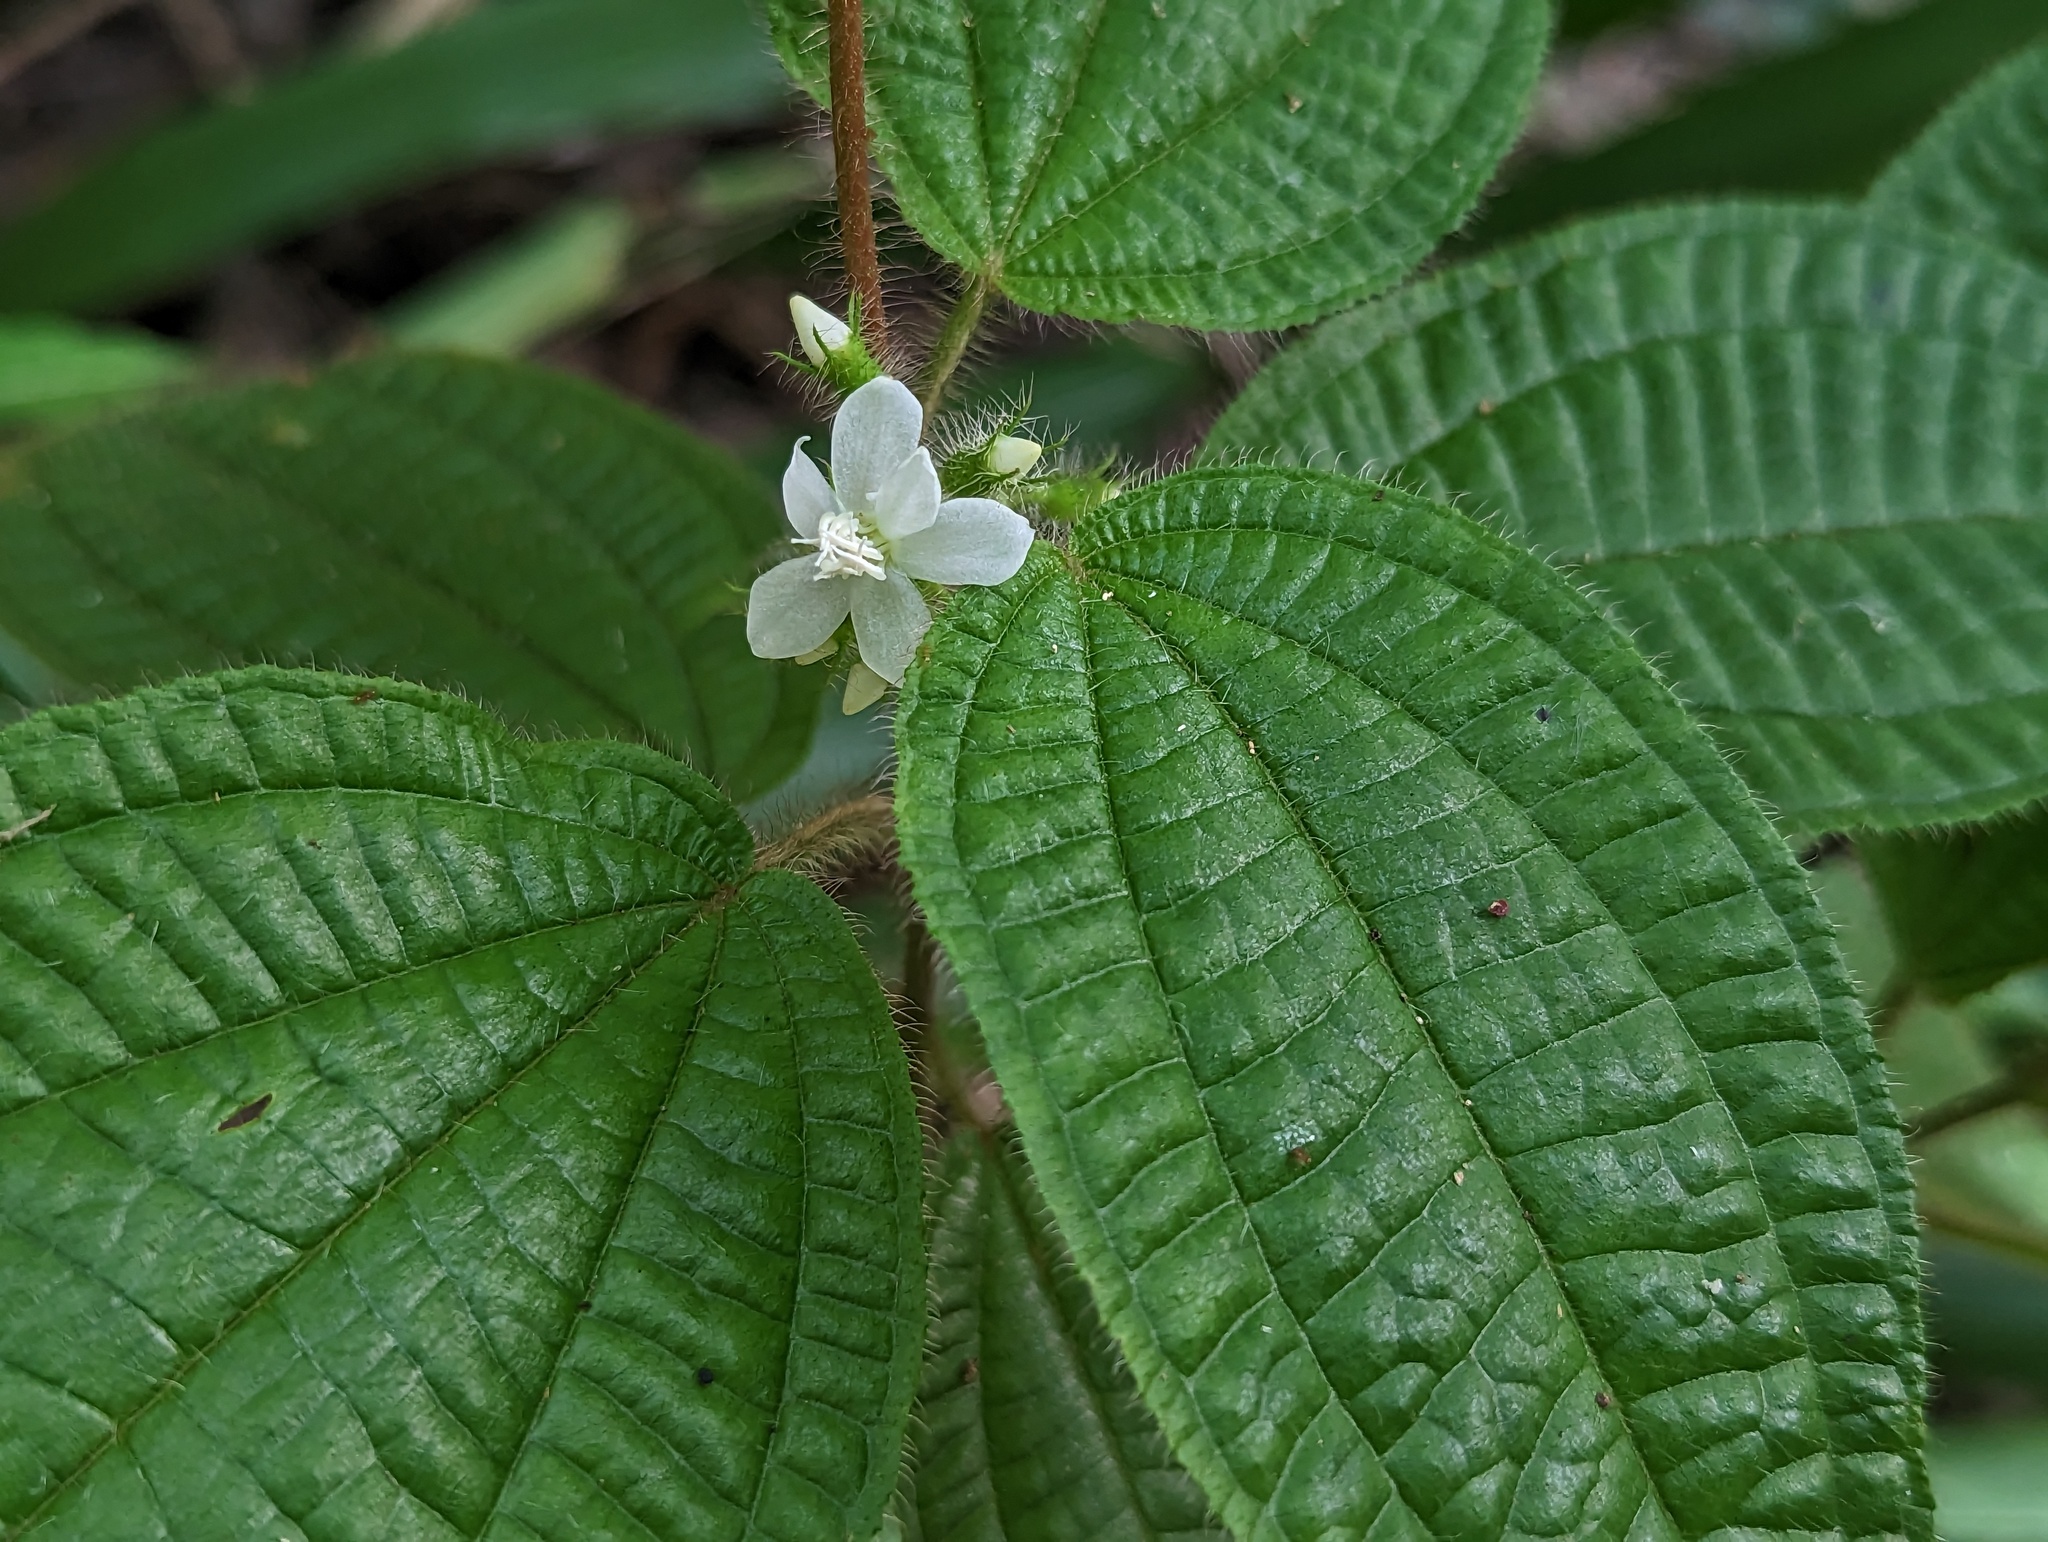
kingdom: Plantae
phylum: Tracheophyta
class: Magnoliopsida
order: Myrtales
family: Melastomataceae
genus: Miconia
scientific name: Miconia crenata
